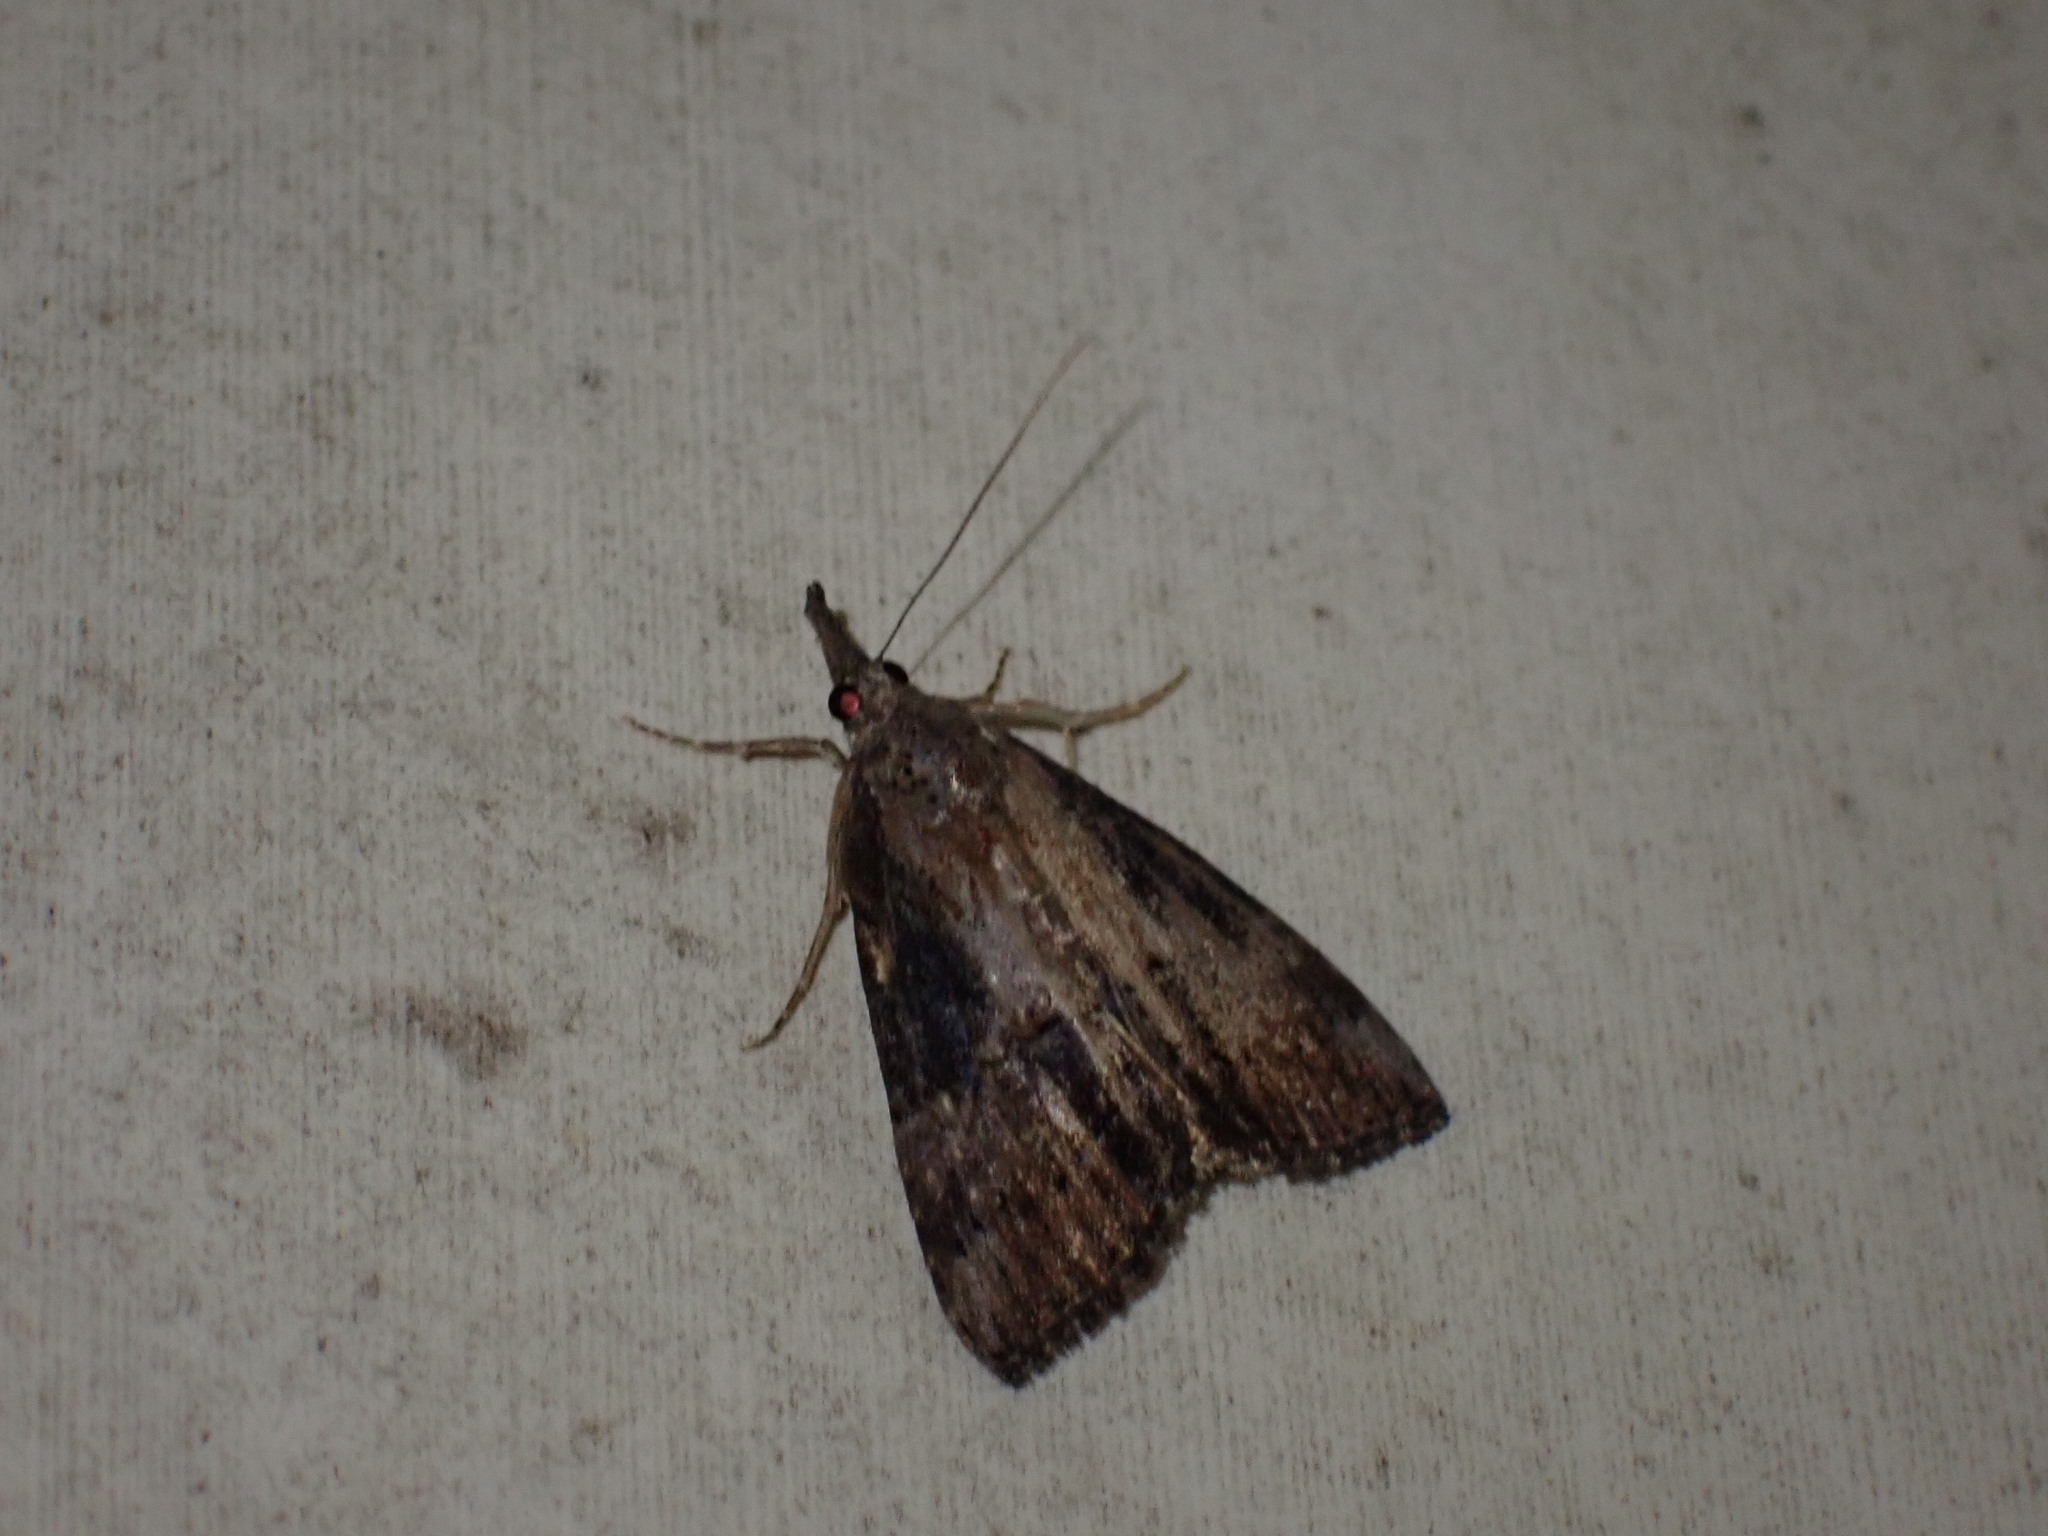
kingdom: Animalia
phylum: Arthropoda
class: Insecta
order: Lepidoptera
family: Erebidae
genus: Hypena
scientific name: Hypena scabra
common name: Green cloverworm
